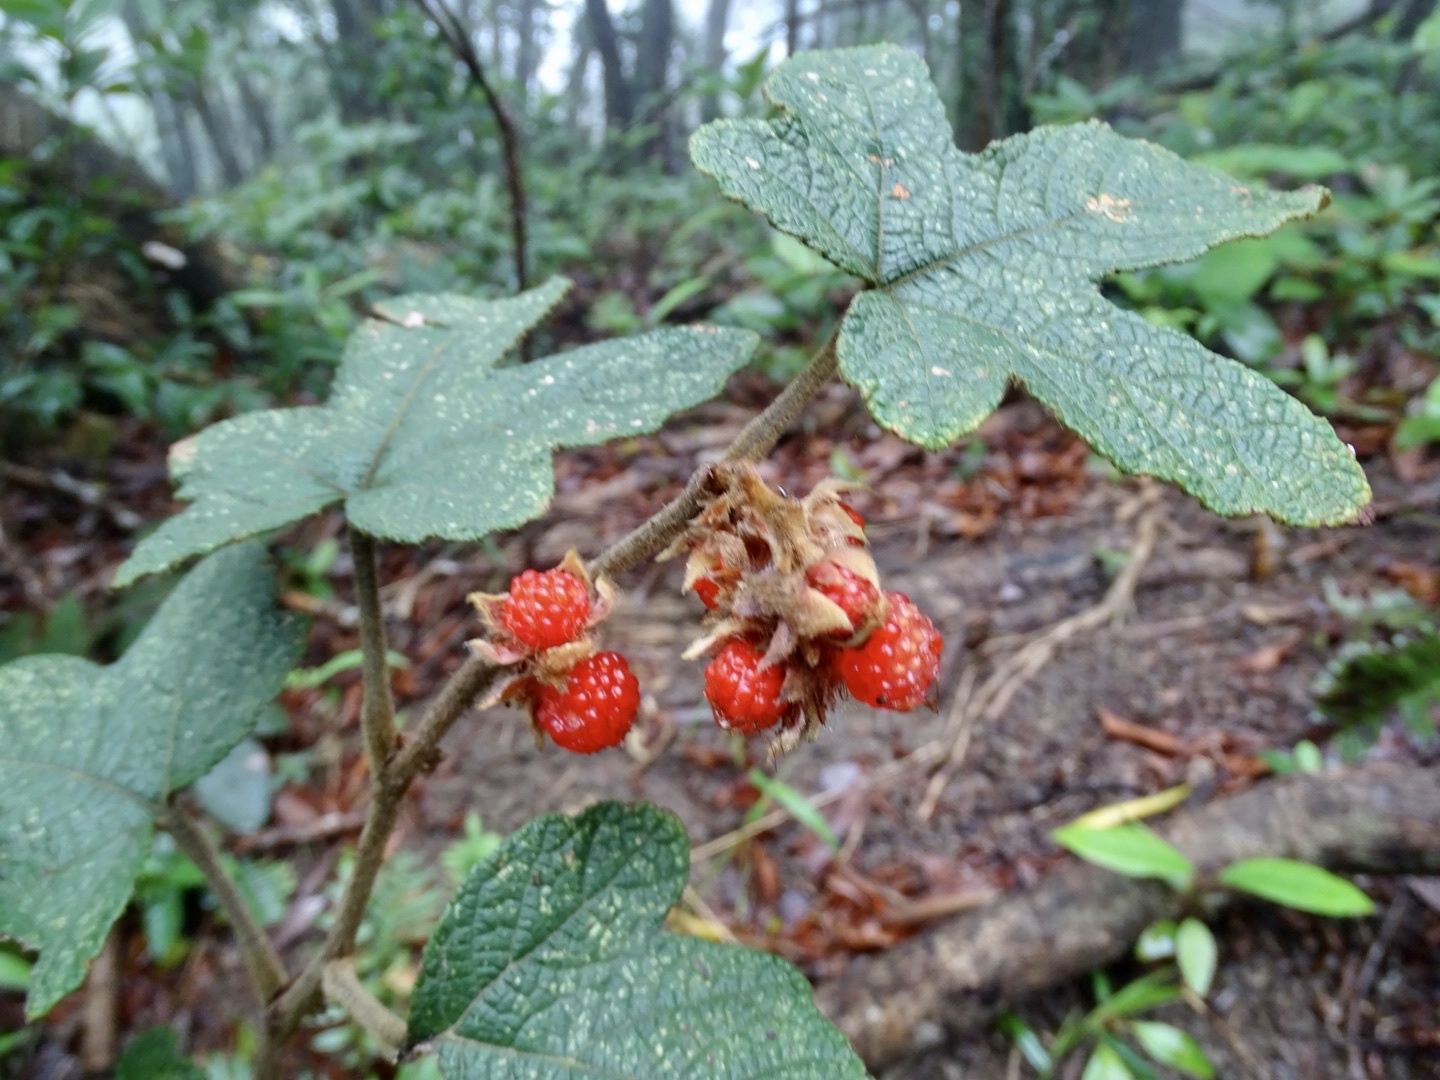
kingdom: Plantae
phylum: Tracheophyta
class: Magnoliopsida
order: Rosales
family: Rosaceae
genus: Rubus
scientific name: Rubus reflexus
